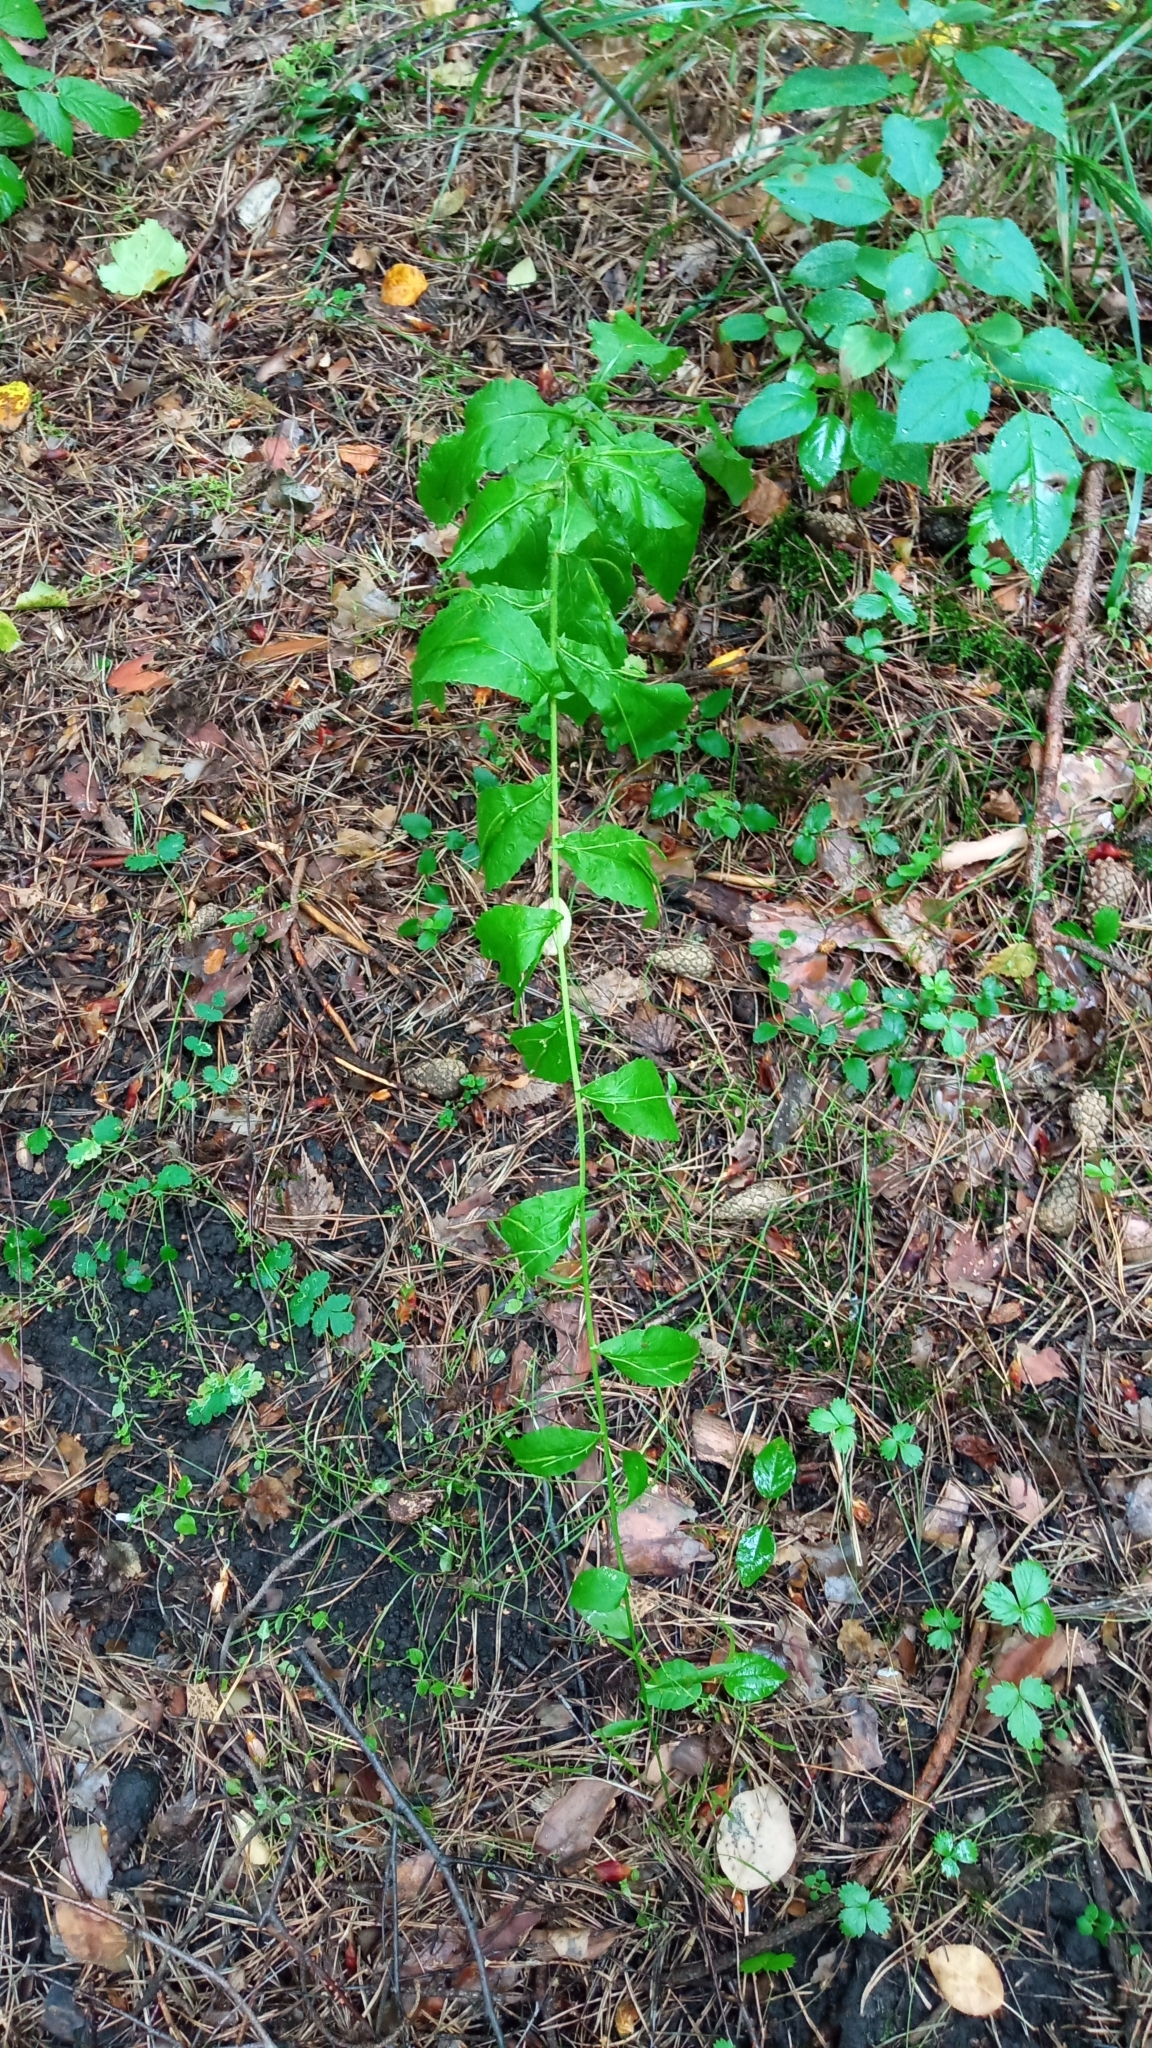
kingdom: Plantae
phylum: Tracheophyta
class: Magnoliopsida
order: Brassicales
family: Brassicaceae
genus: Catolobus
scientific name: Catolobus pendulus
